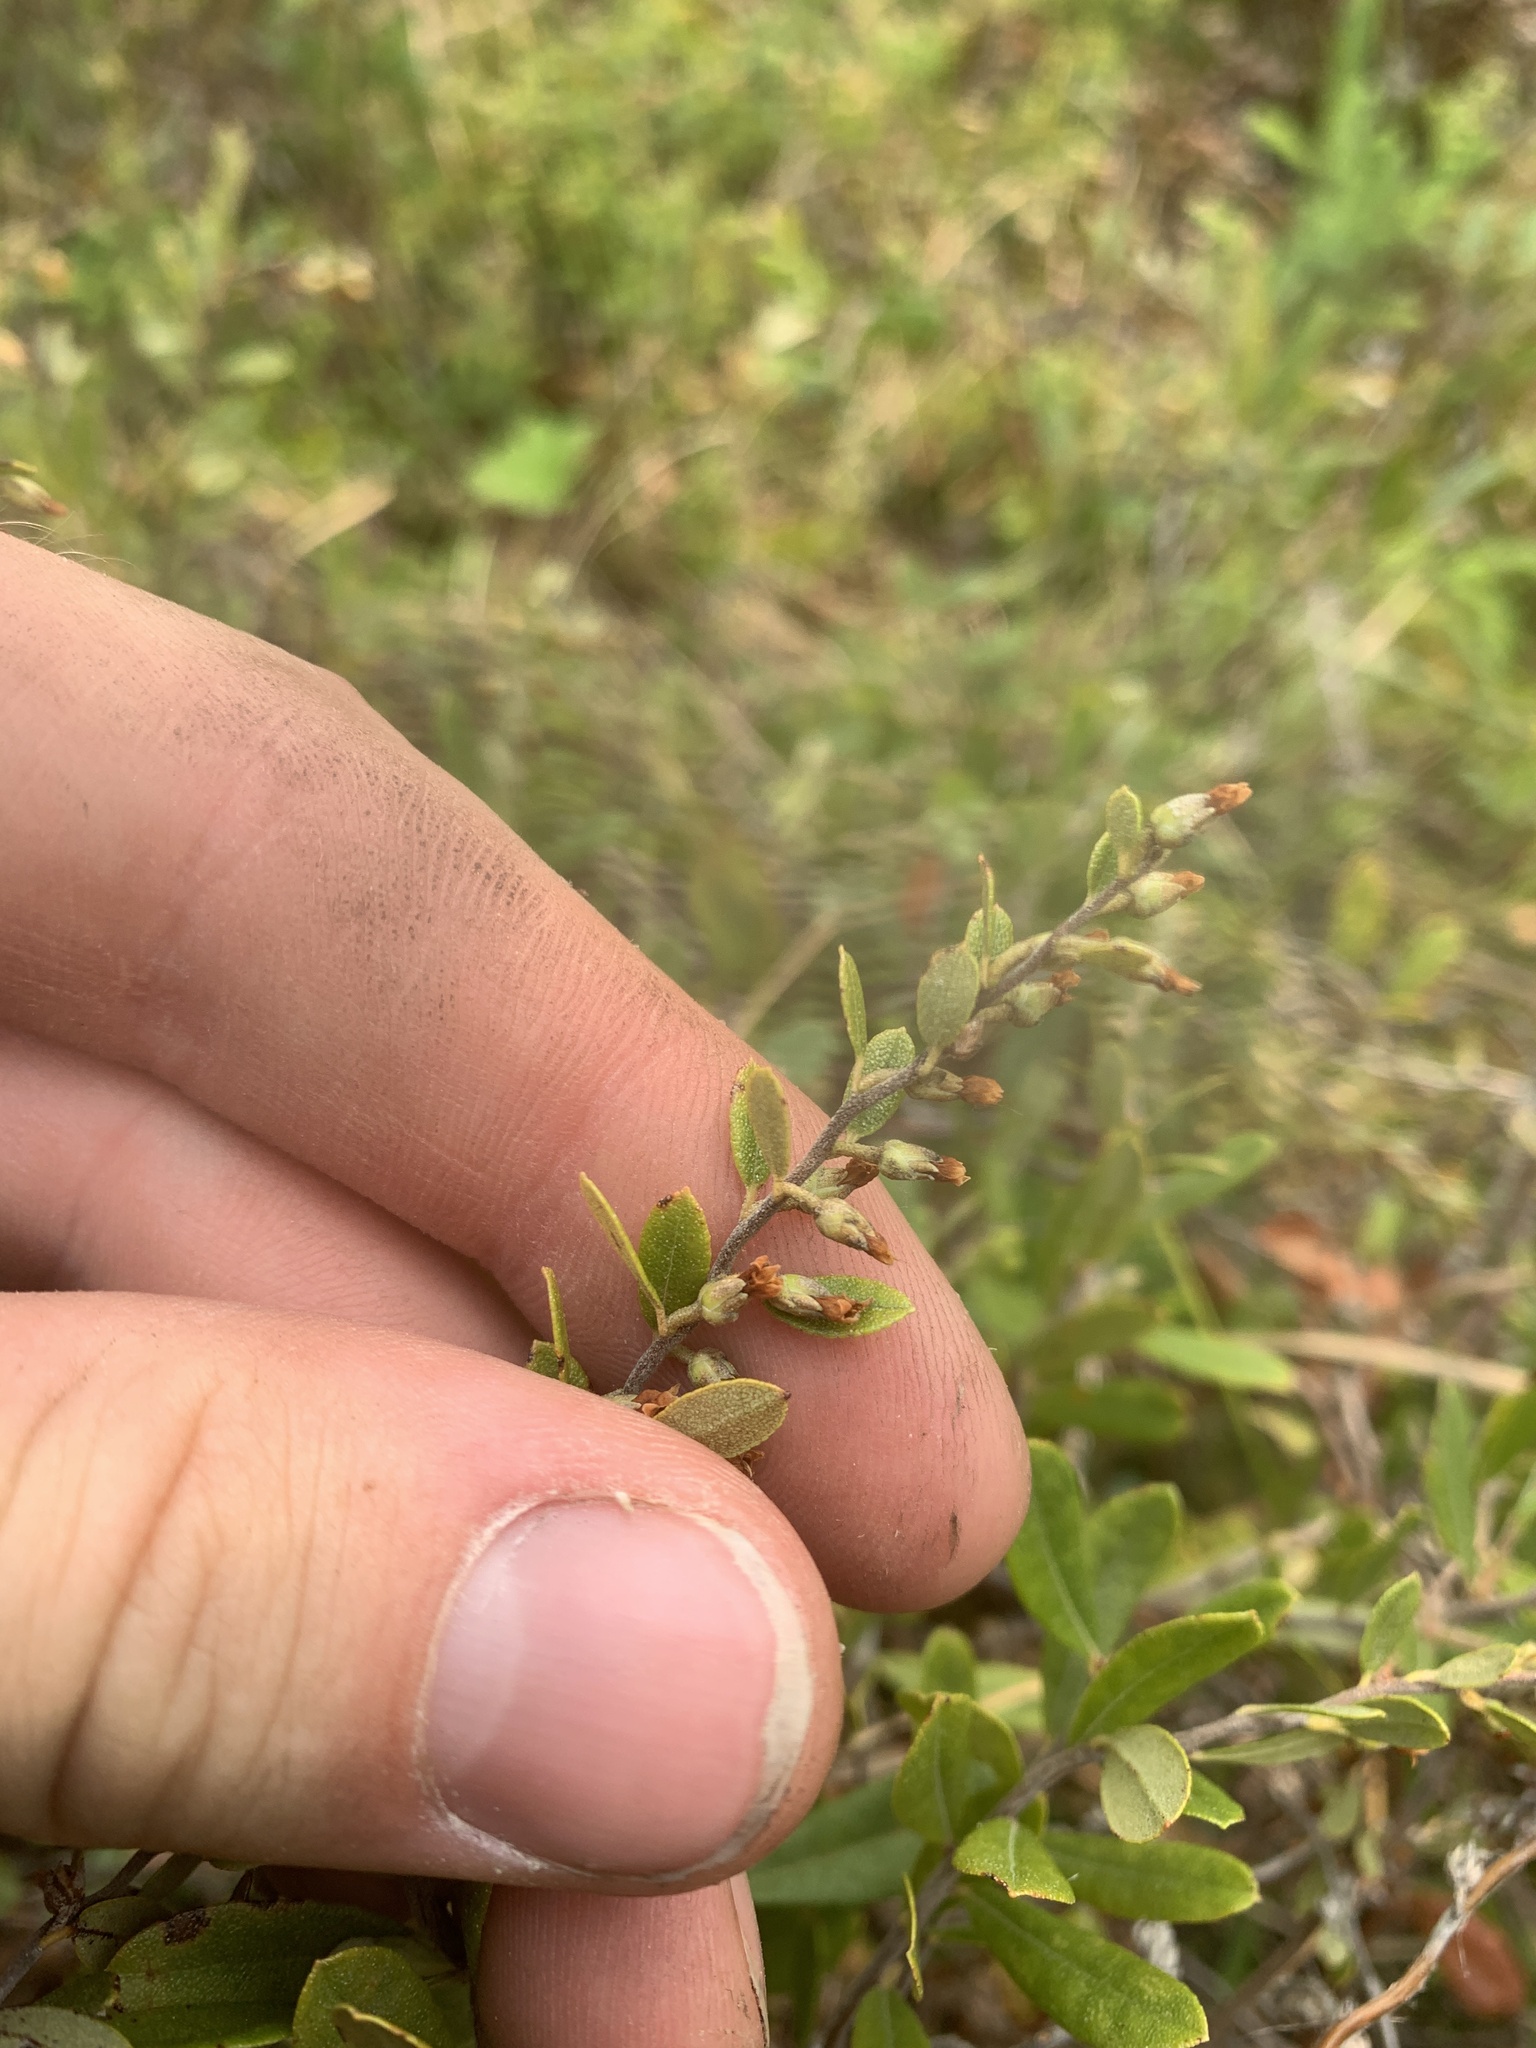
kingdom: Plantae
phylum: Tracheophyta
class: Magnoliopsida
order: Ericales
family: Ericaceae
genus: Chamaedaphne
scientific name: Chamaedaphne calyculata
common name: Leatherleaf
